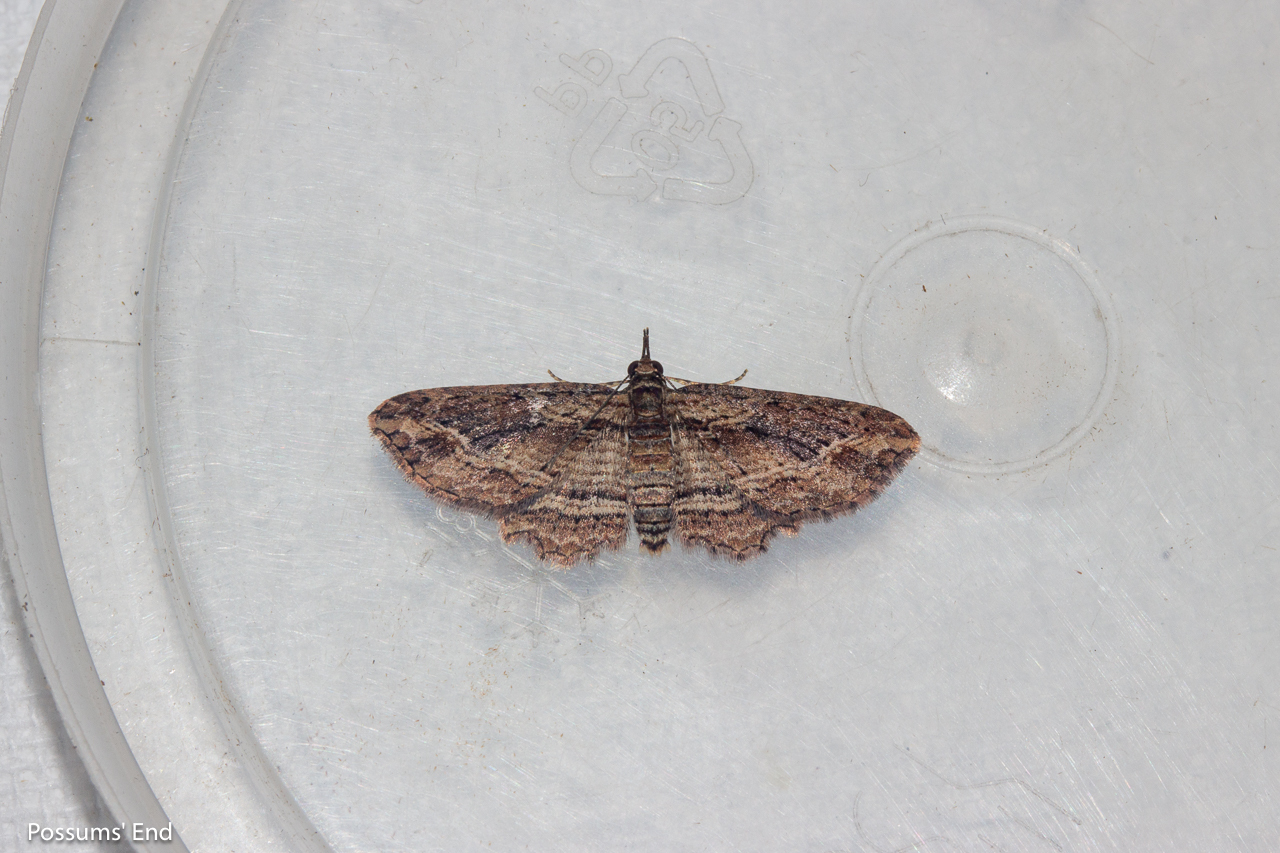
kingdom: Animalia
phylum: Arthropoda
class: Insecta
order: Lepidoptera
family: Geometridae
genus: Chloroclystis
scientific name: Chloroclystis filata
